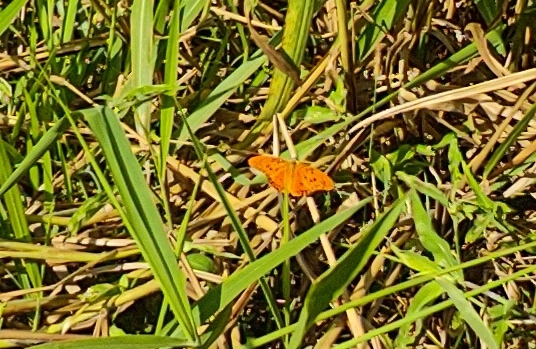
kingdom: Animalia
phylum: Arthropoda
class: Insecta
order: Lepidoptera
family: Nymphalidae
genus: Dione
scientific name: Dione vanillae
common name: Gulf fritillary
